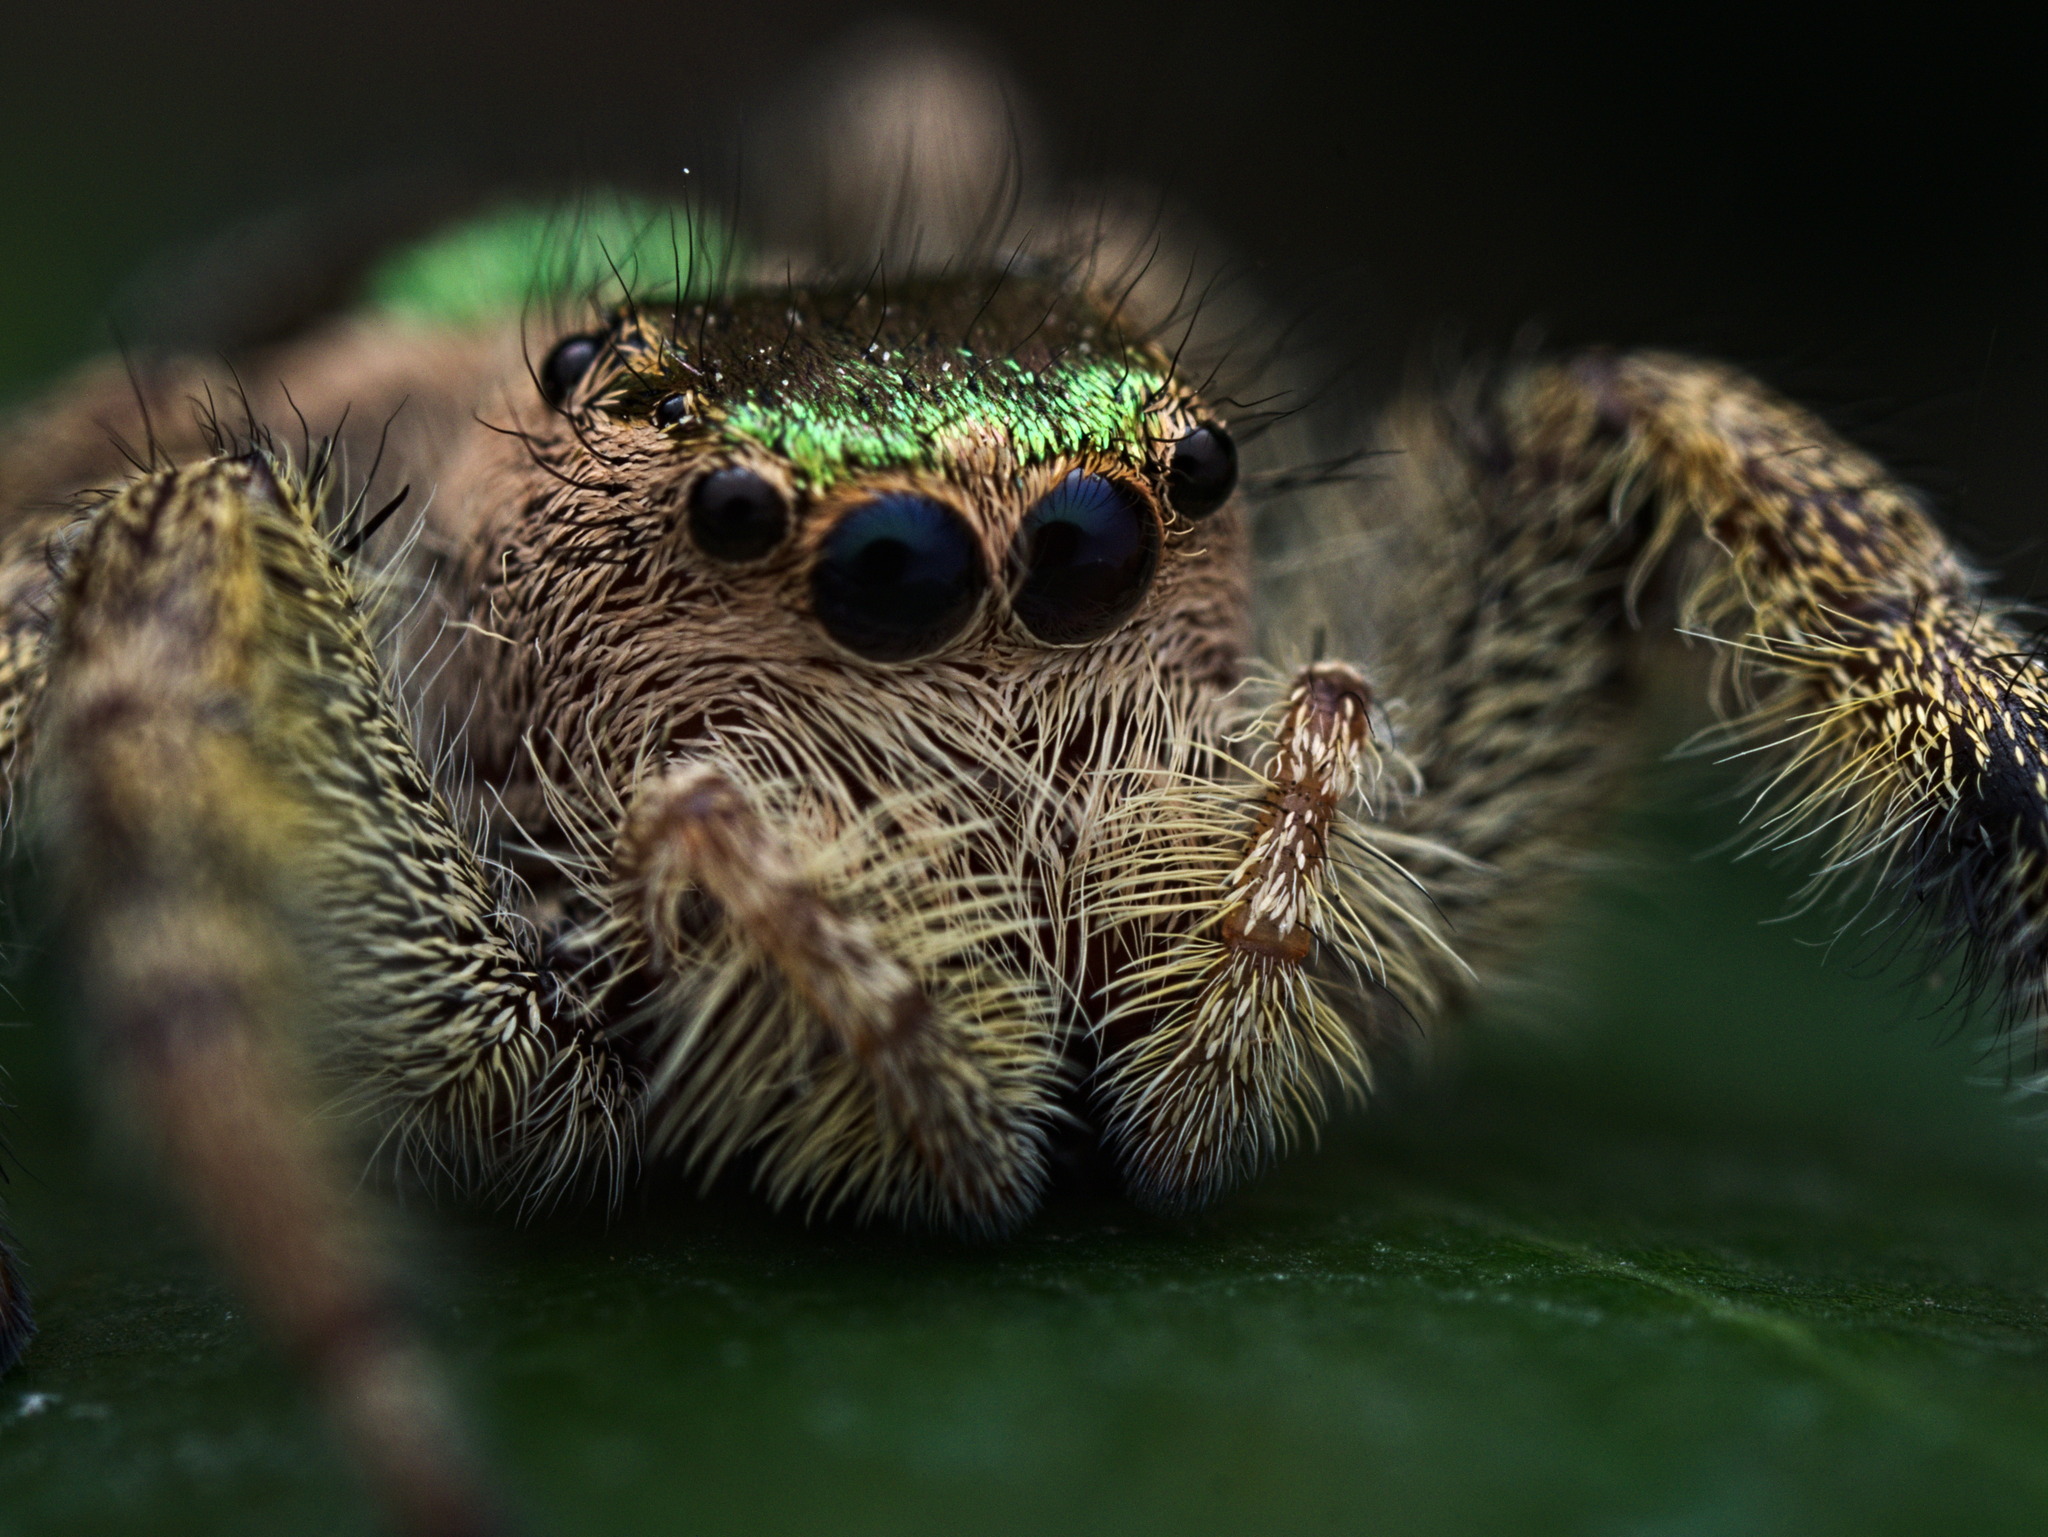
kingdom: Animalia
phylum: Arthropoda
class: Arachnida
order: Araneae
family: Salticidae
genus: Paraphidippus
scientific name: Paraphidippus aurantius
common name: Jumping spiders
